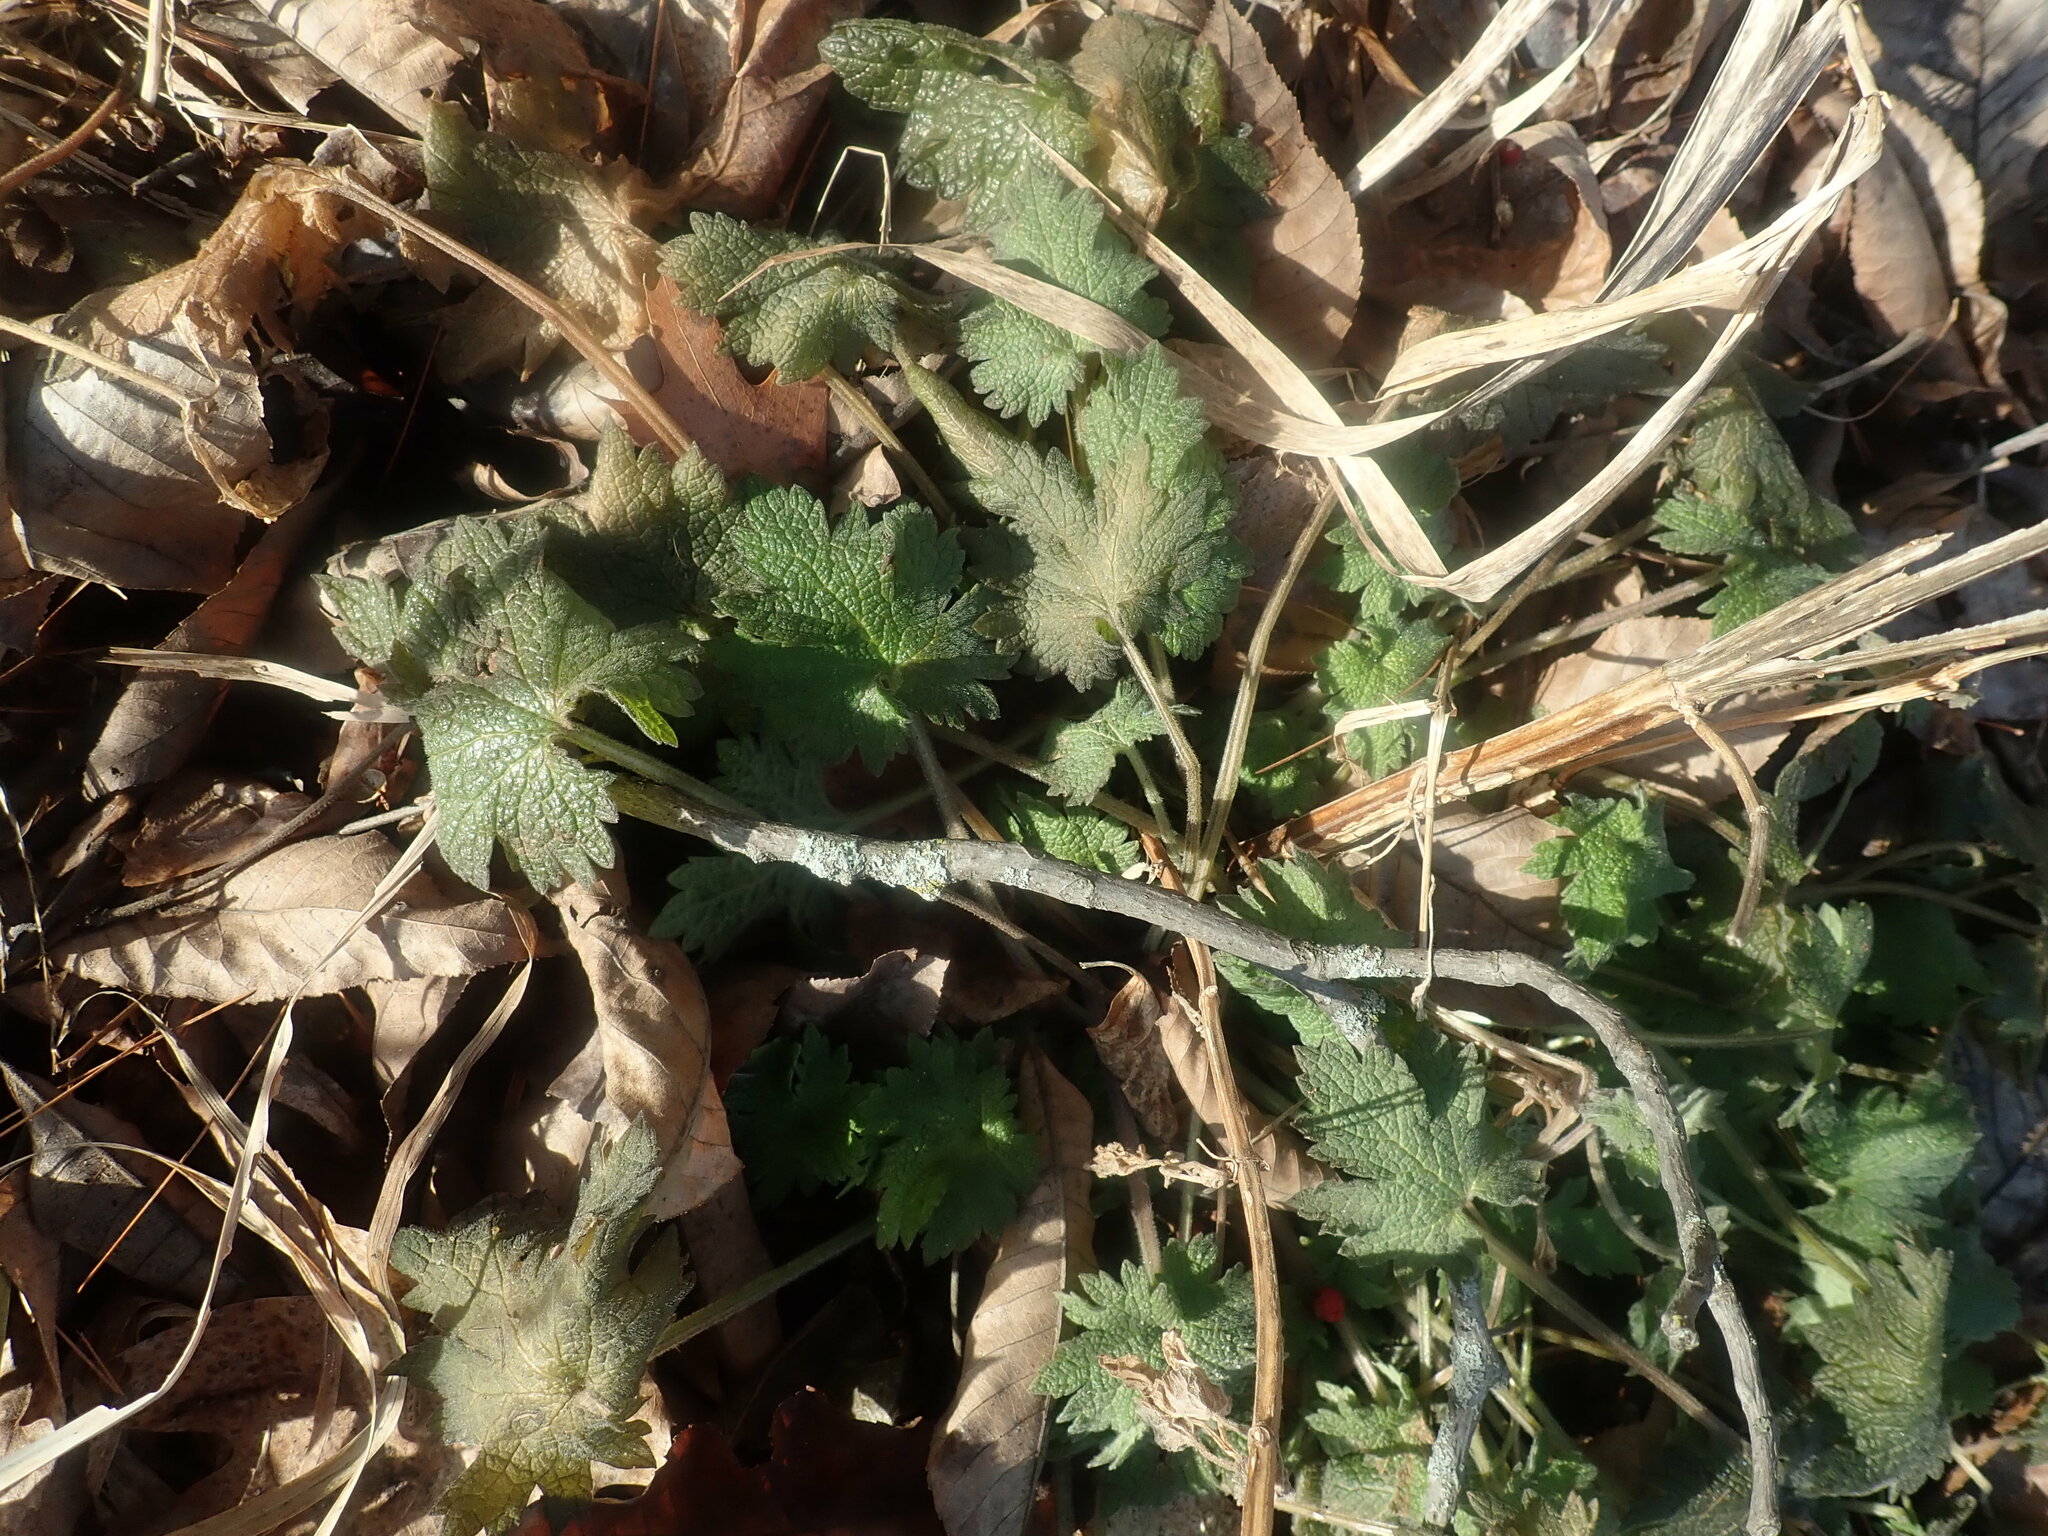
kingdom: Plantae
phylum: Tracheophyta
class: Magnoliopsida
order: Lamiales
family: Lamiaceae
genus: Leonurus
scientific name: Leonurus cardiaca
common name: Motherwort
